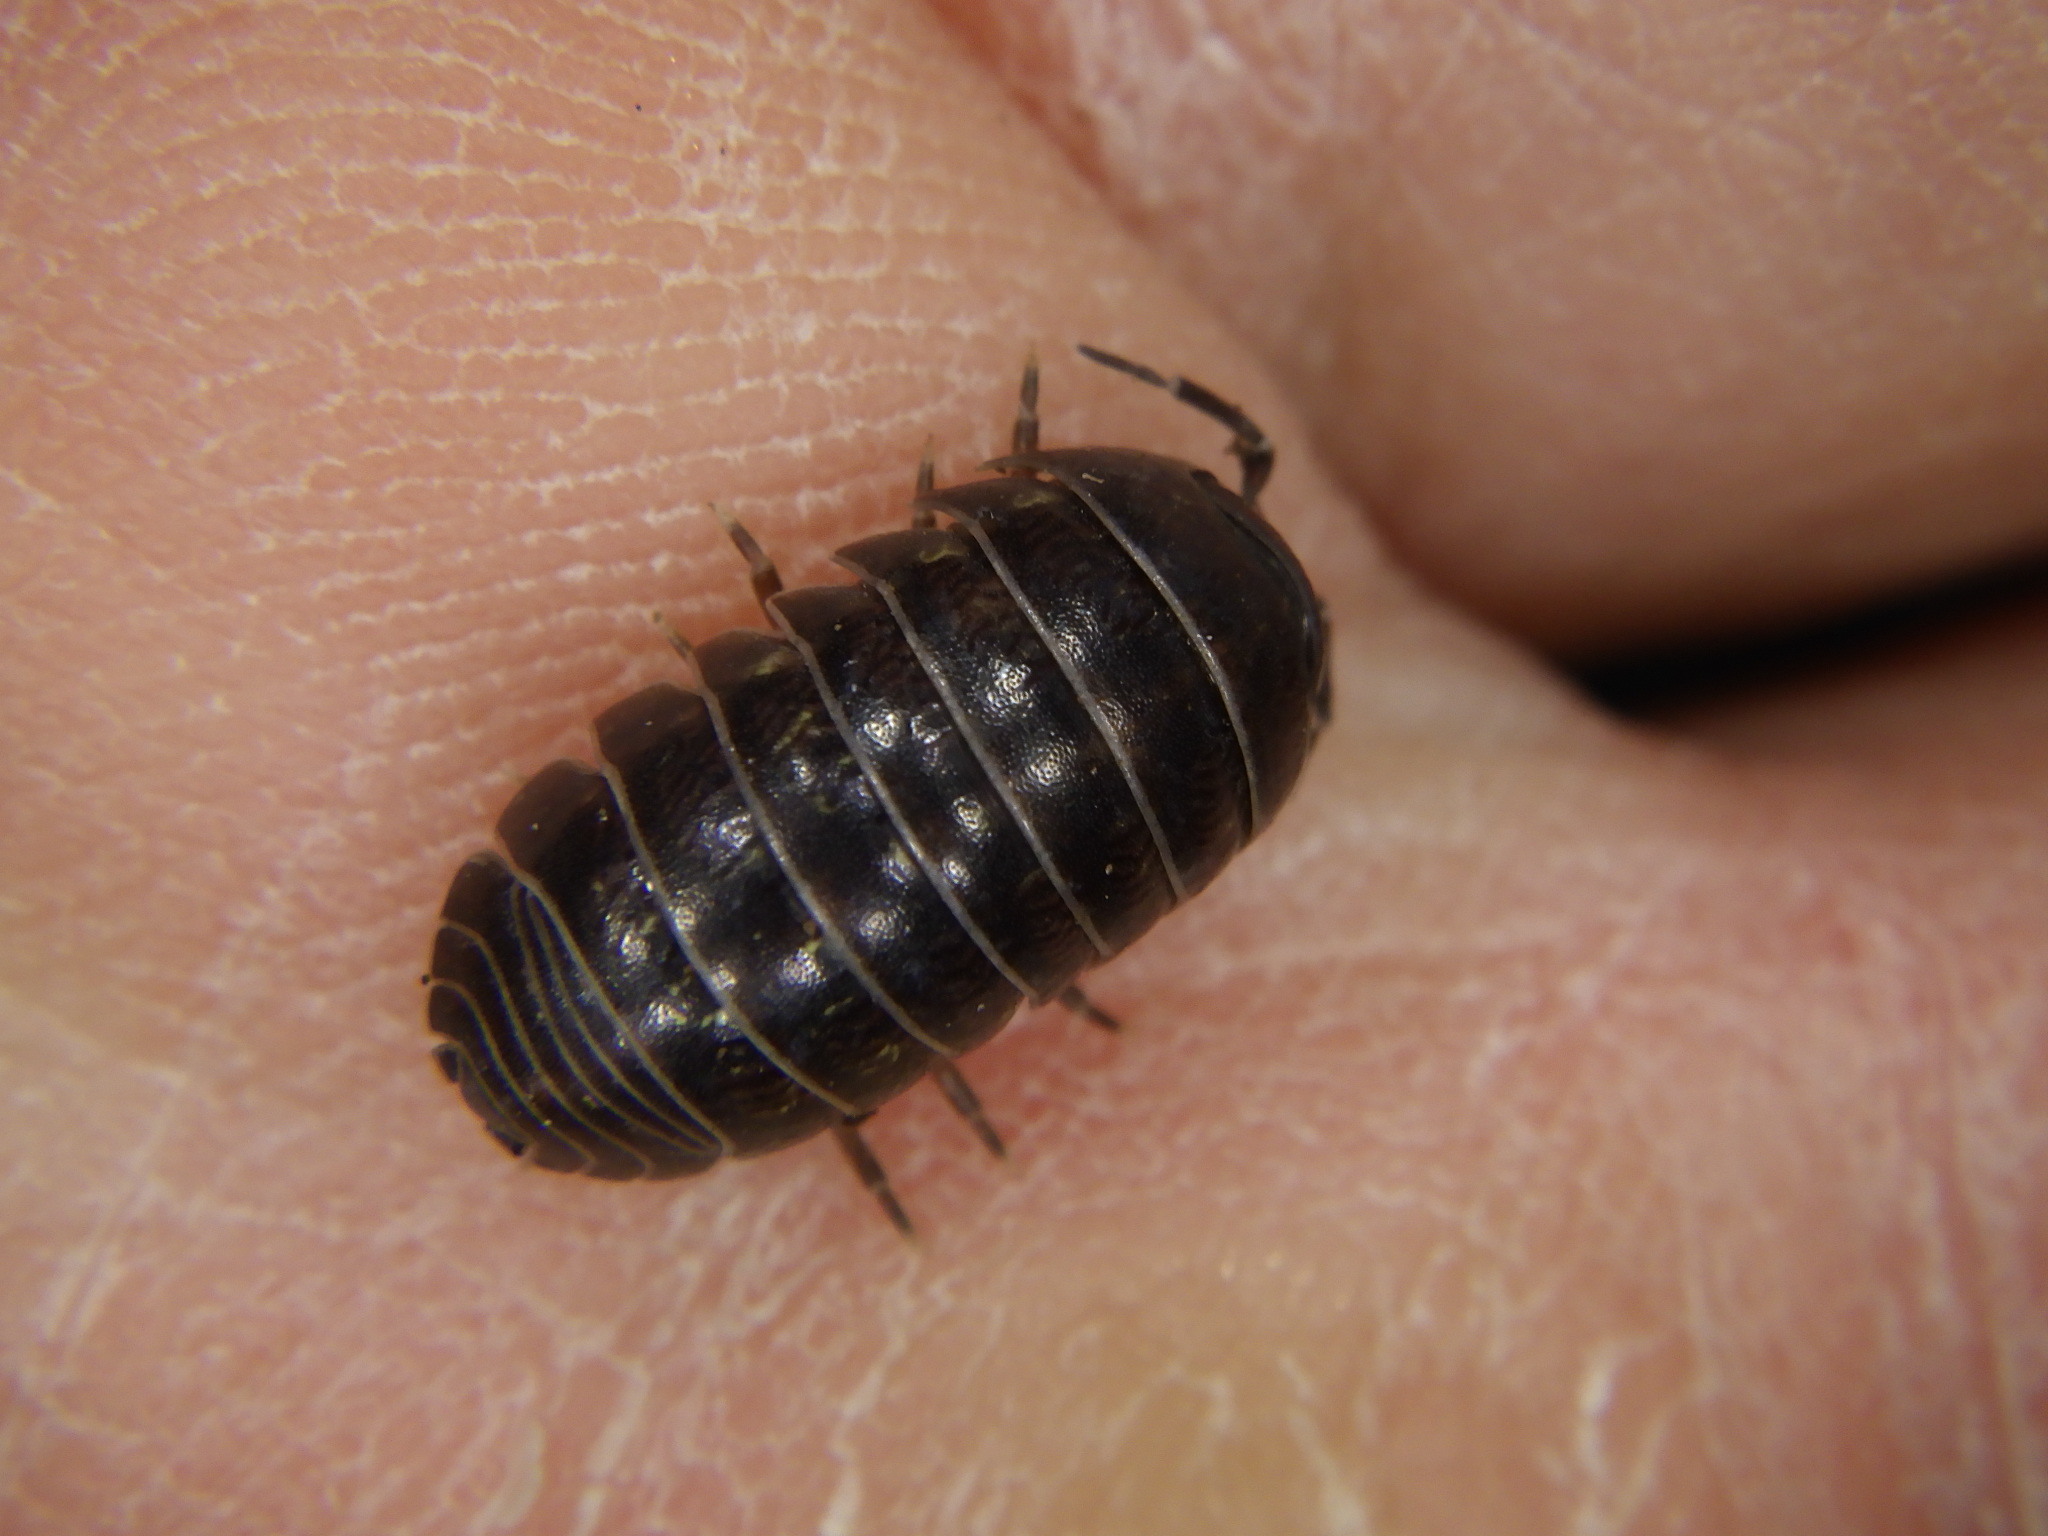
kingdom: Animalia
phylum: Arthropoda
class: Malacostraca
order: Isopoda
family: Armadillidiidae
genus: Armadillidium
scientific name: Armadillidium vulgare
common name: Common pill woodlouse
